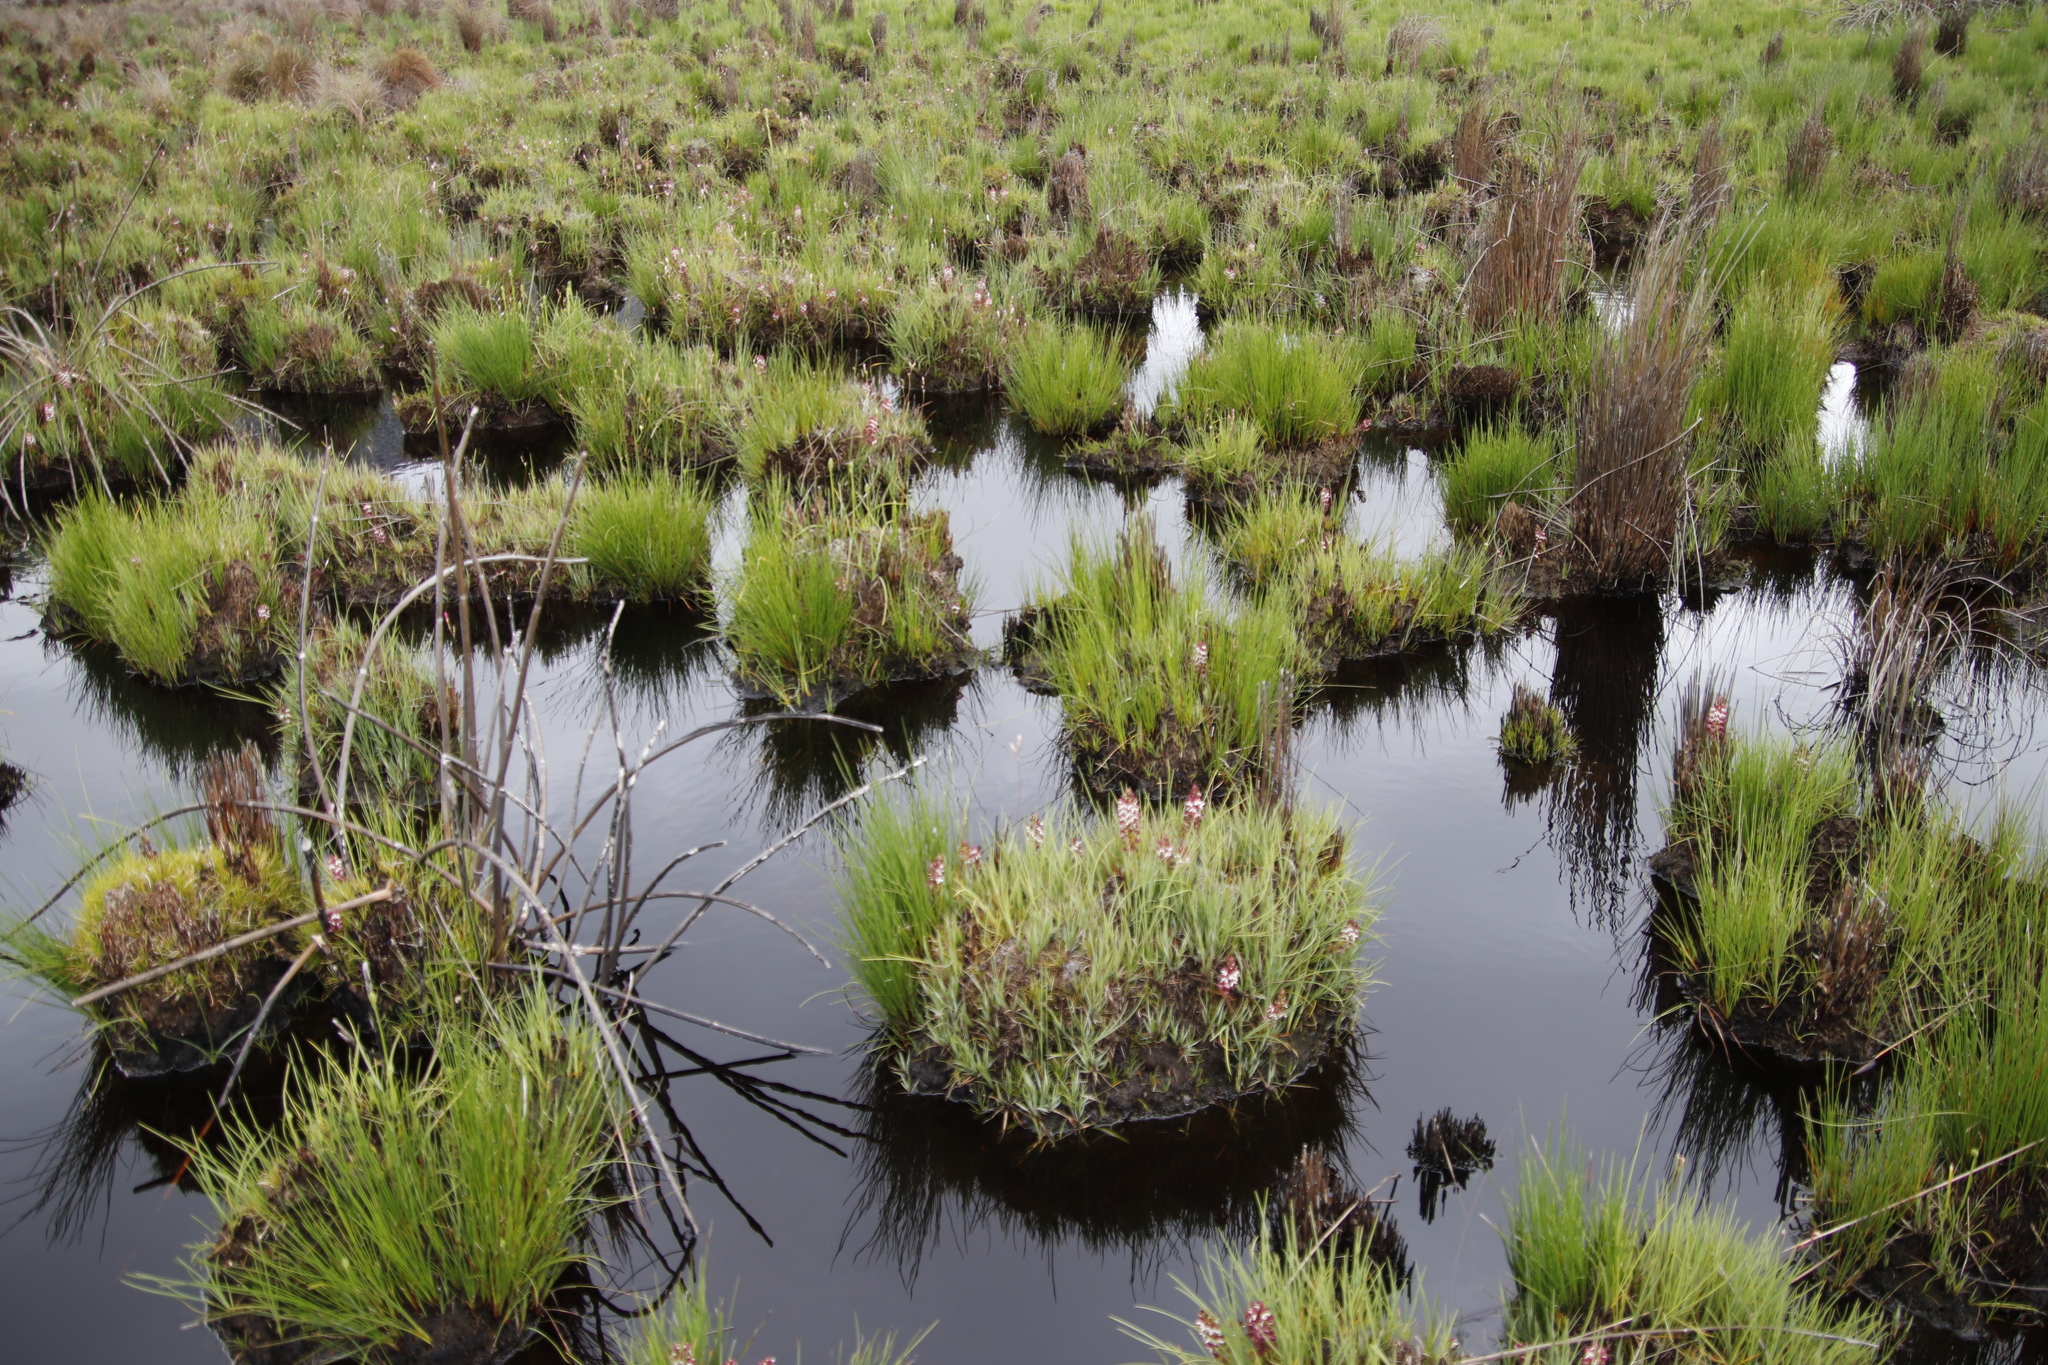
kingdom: Plantae
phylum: Tracheophyta
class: Liliopsida
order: Asparagales
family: Orchidaceae
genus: Disa
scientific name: Disa albomagentea
